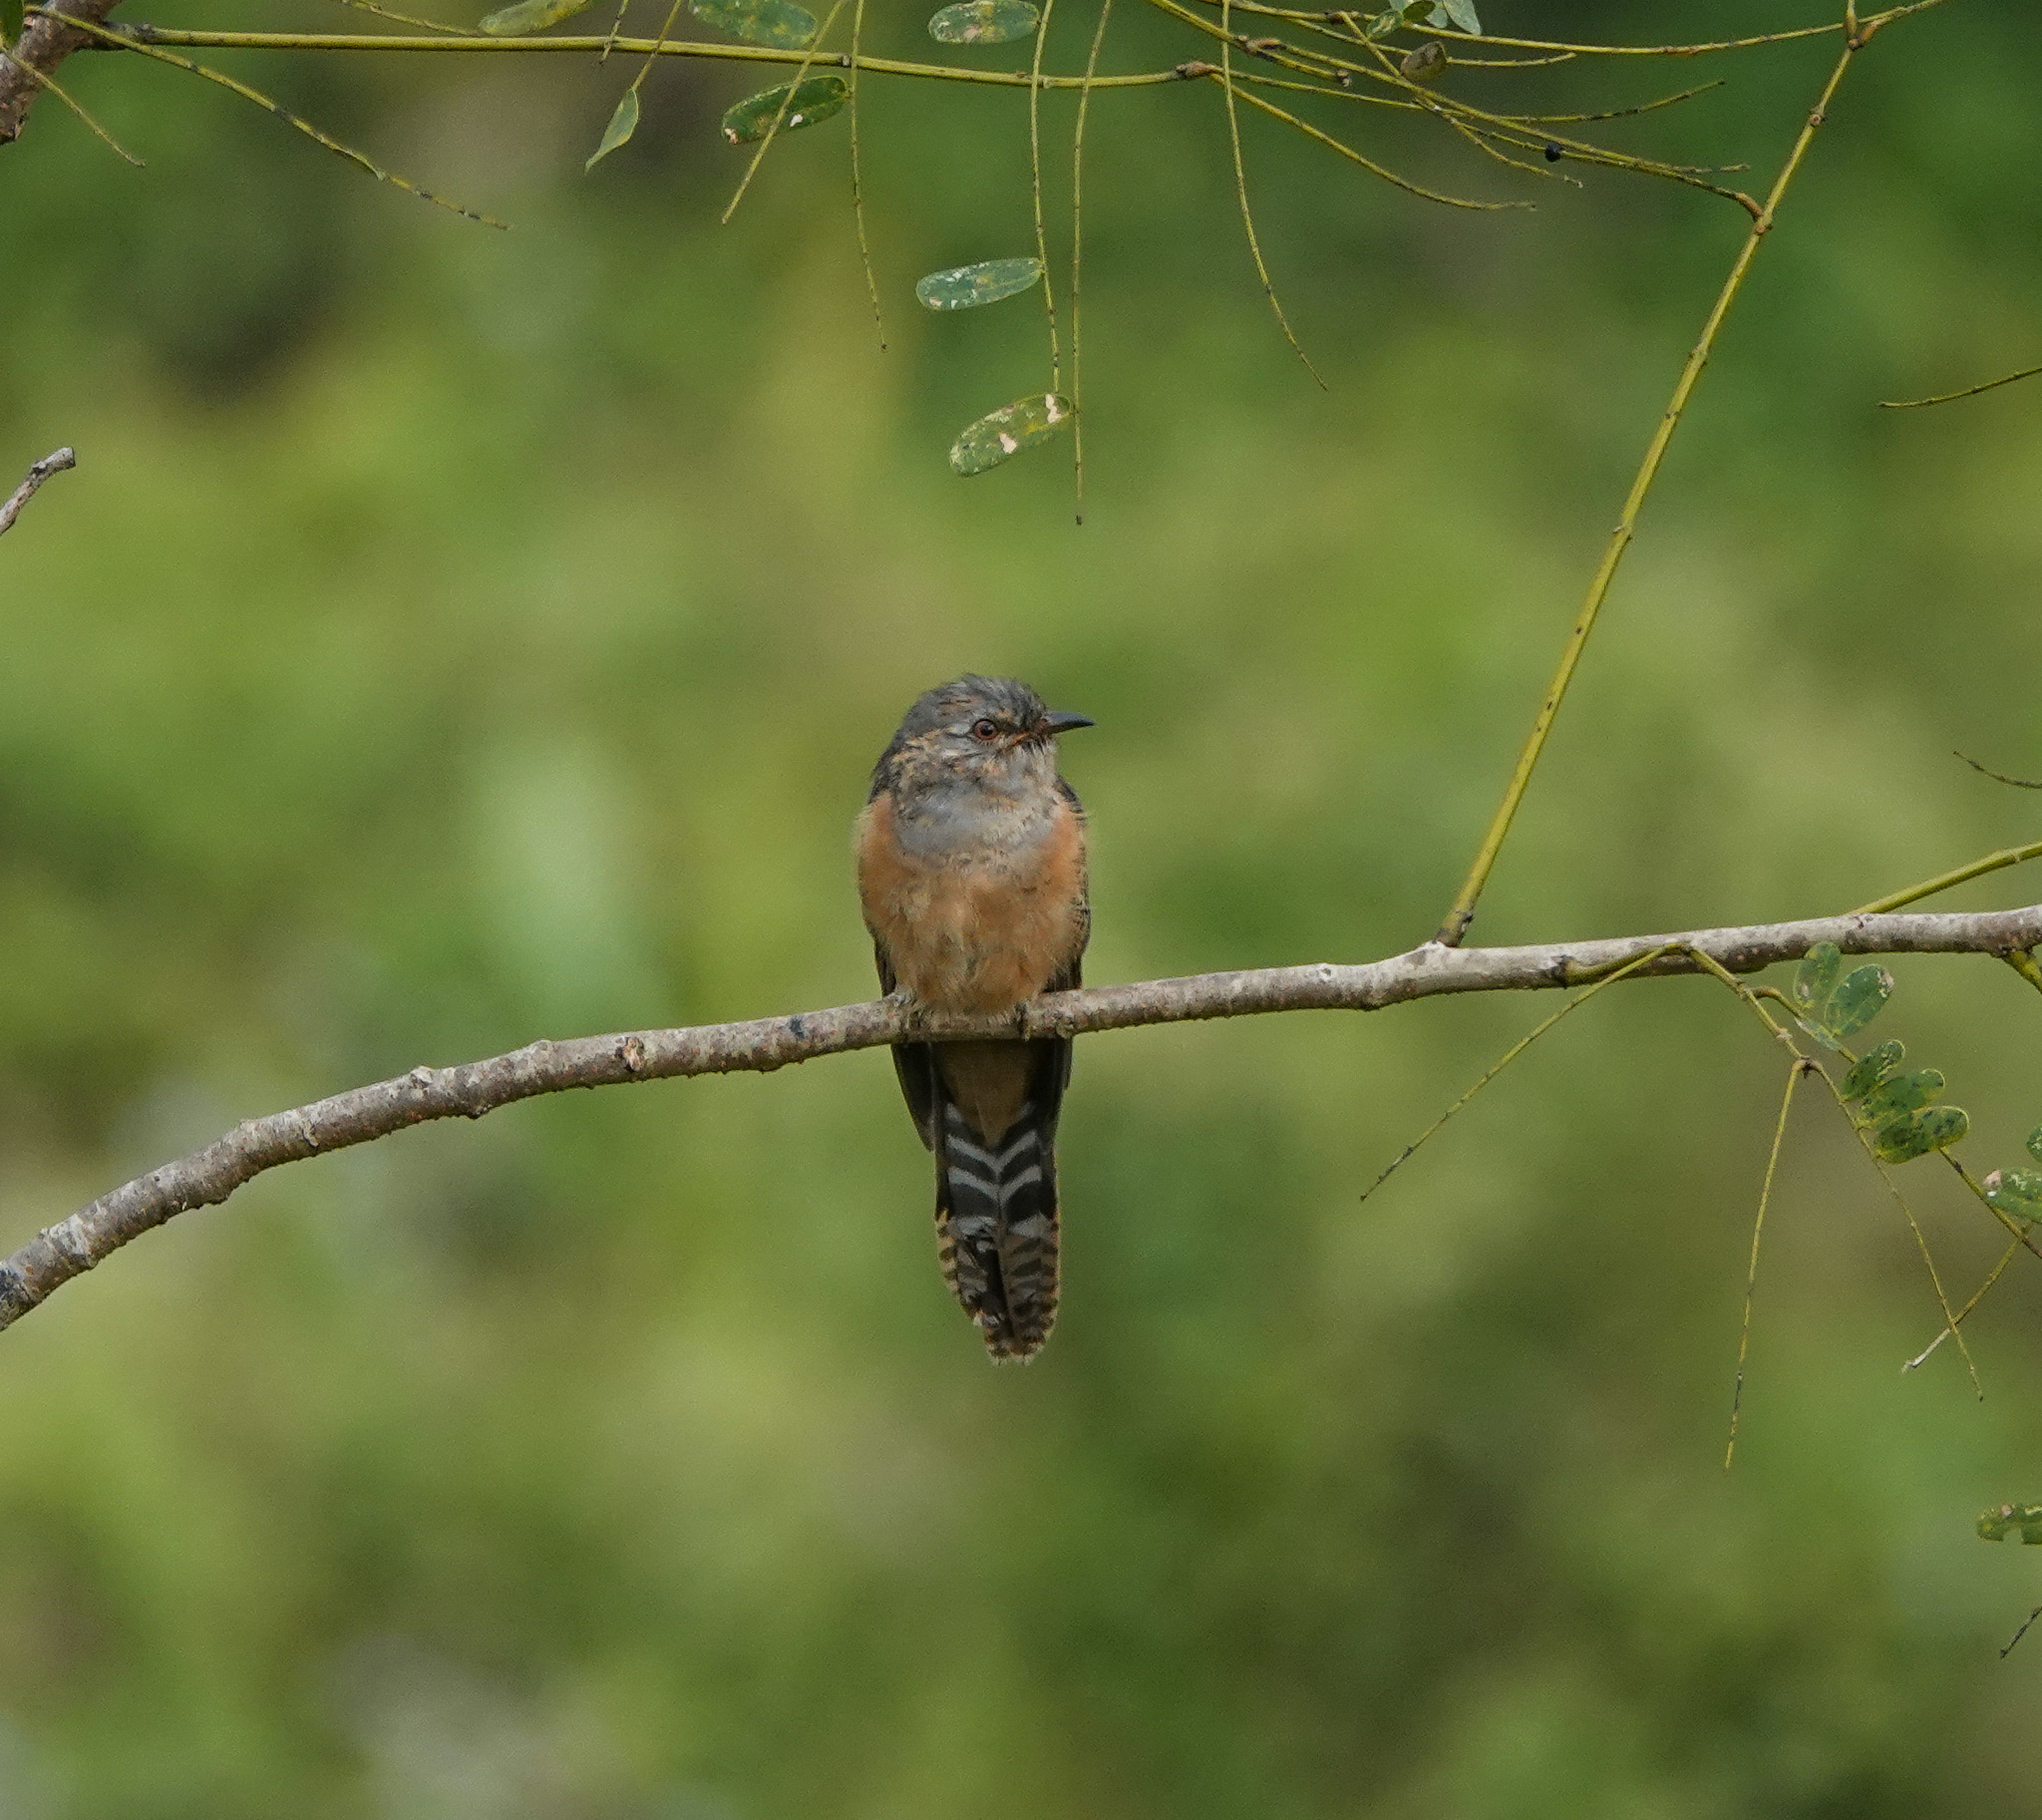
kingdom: Animalia
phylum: Chordata
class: Aves
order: Cuculiformes
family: Cuculidae
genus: Cacomantis
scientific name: Cacomantis merulinus
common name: Plaintive cuckoo
